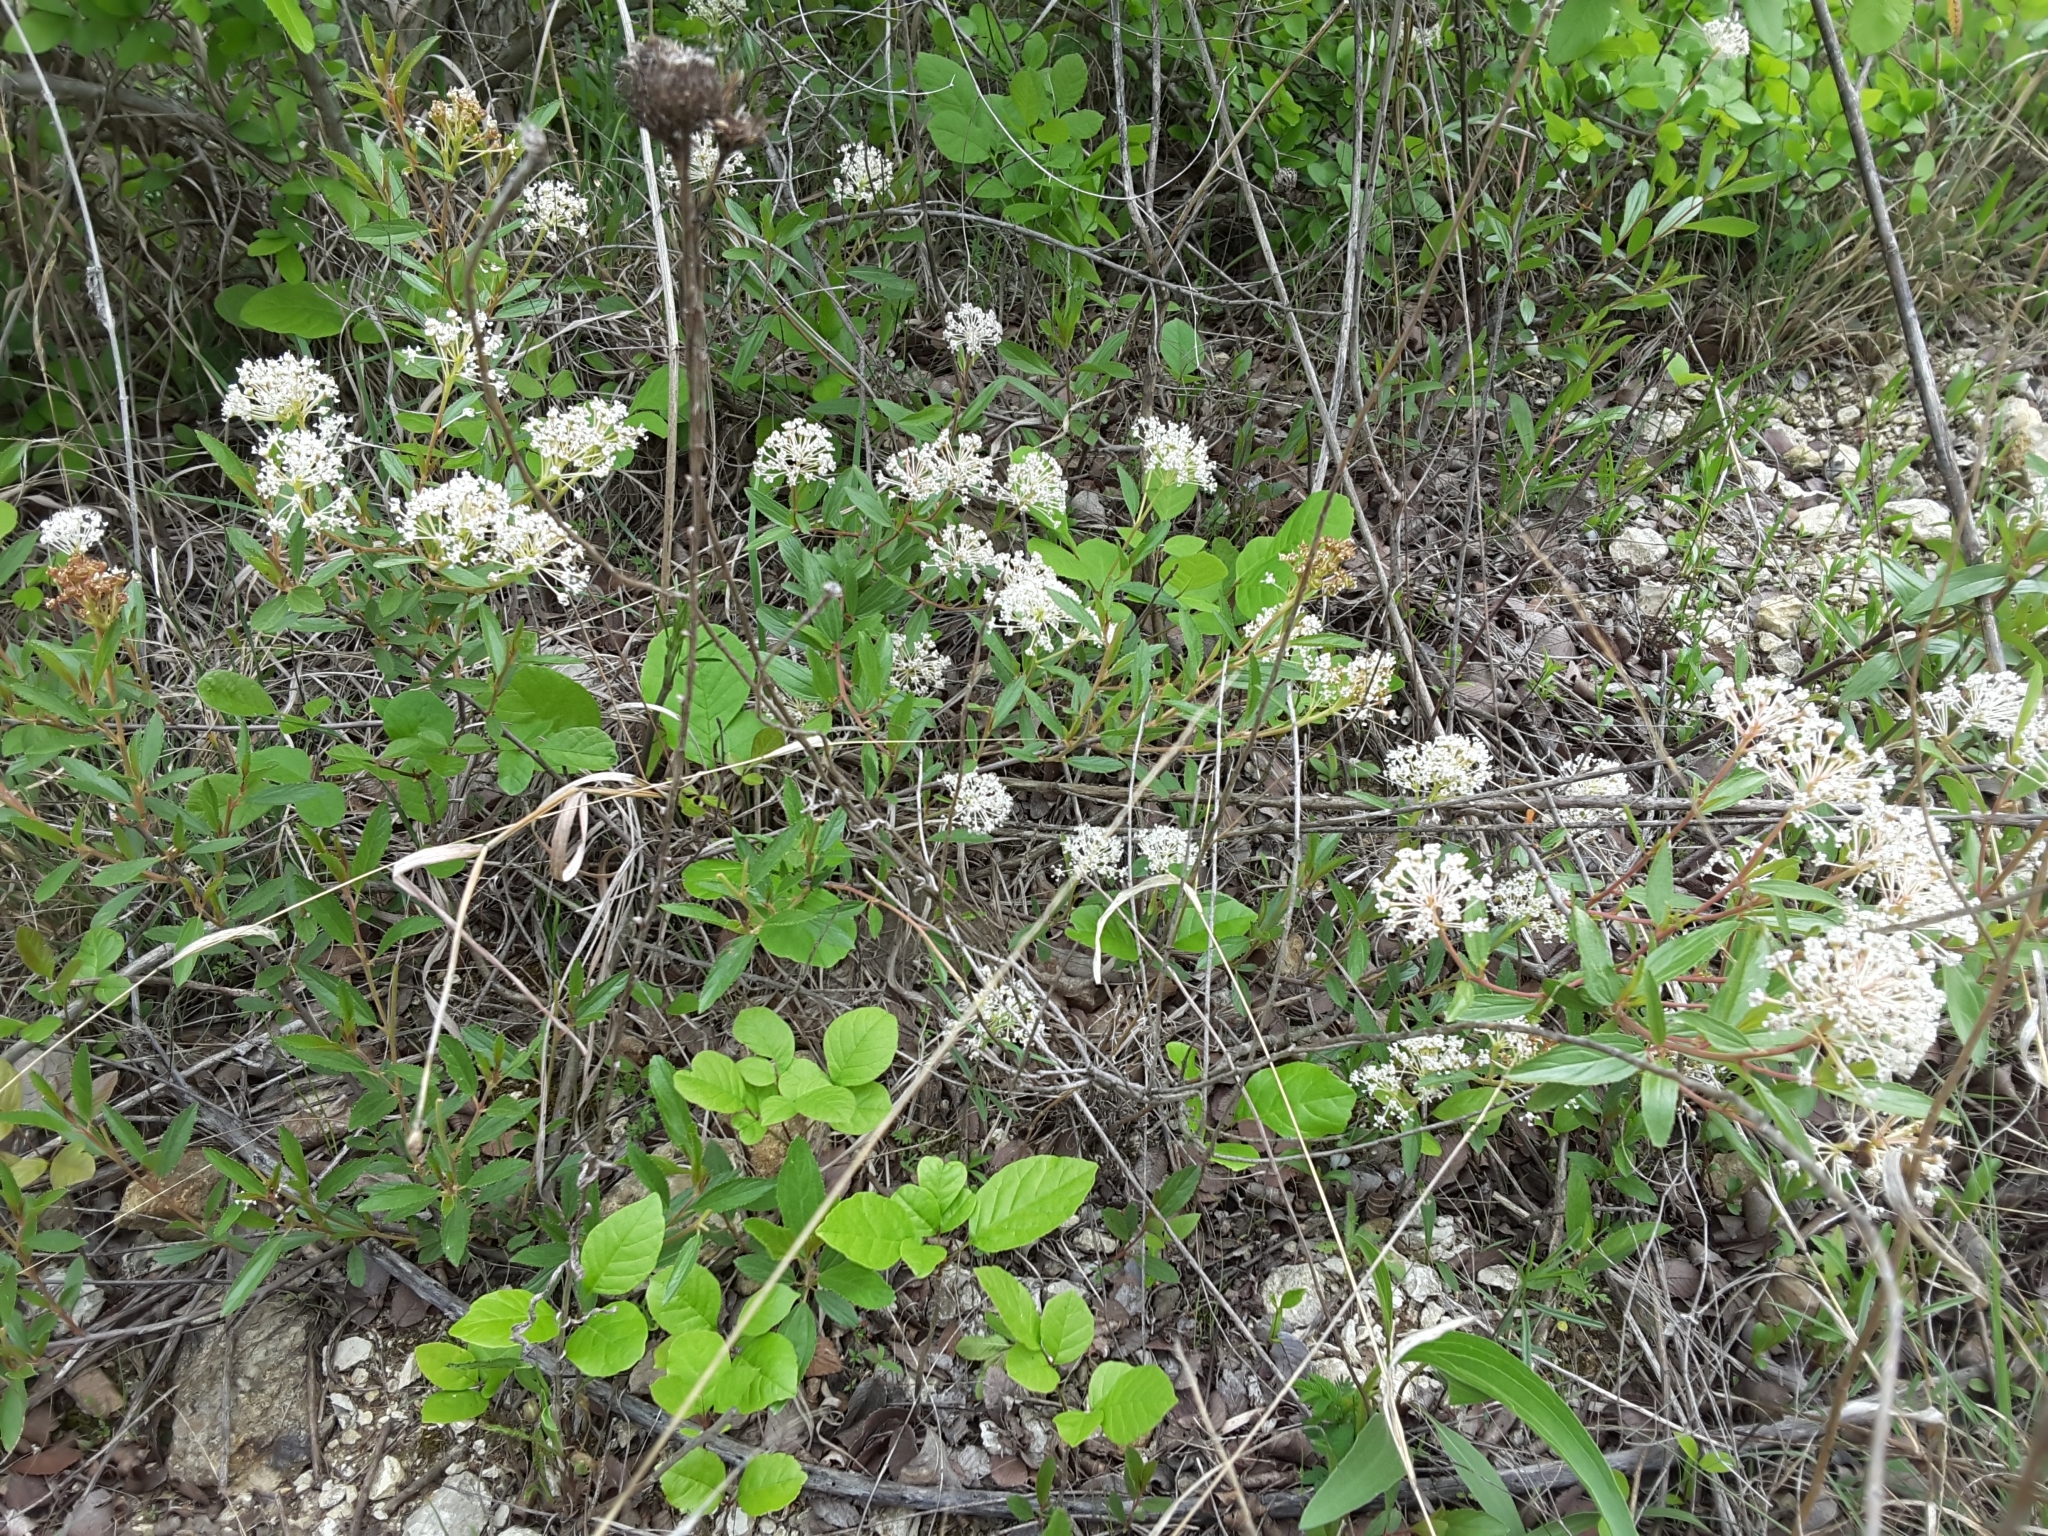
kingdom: Plantae
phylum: Tracheophyta
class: Magnoliopsida
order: Rosales
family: Rhamnaceae
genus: Ceanothus
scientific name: Ceanothus herbaceus
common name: Inland ceanothus
